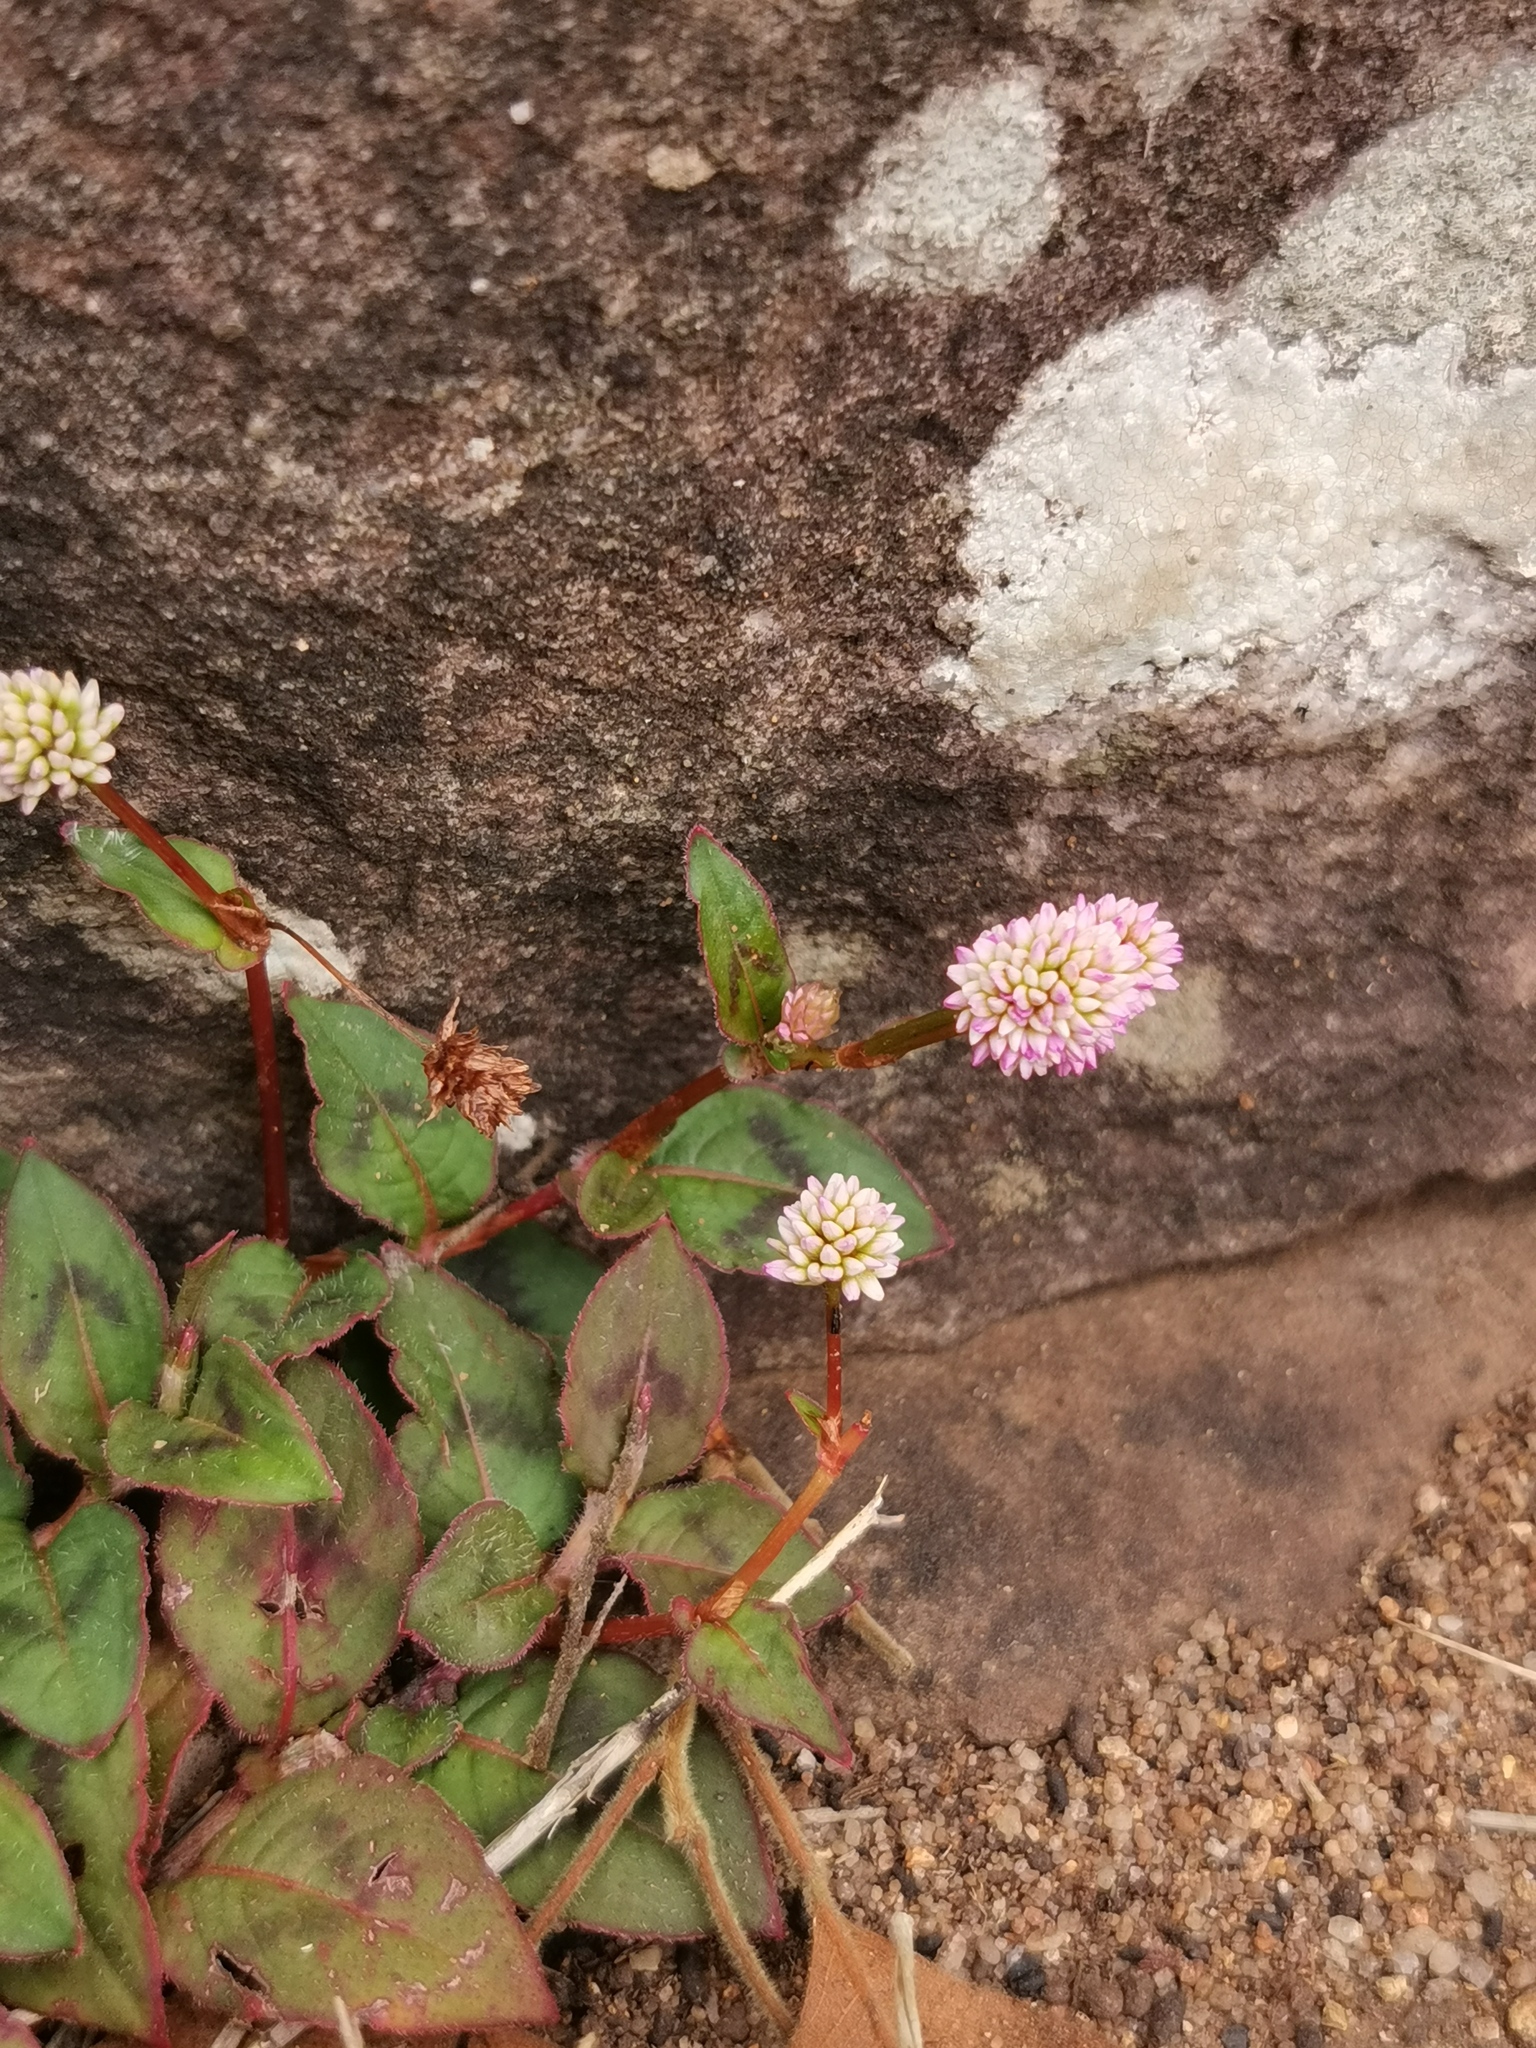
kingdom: Plantae
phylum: Tracheophyta
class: Magnoliopsida
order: Caryophyllales
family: Polygonaceae
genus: Persicaria
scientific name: Persicaria capitata
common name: Pinkhead smartweed
